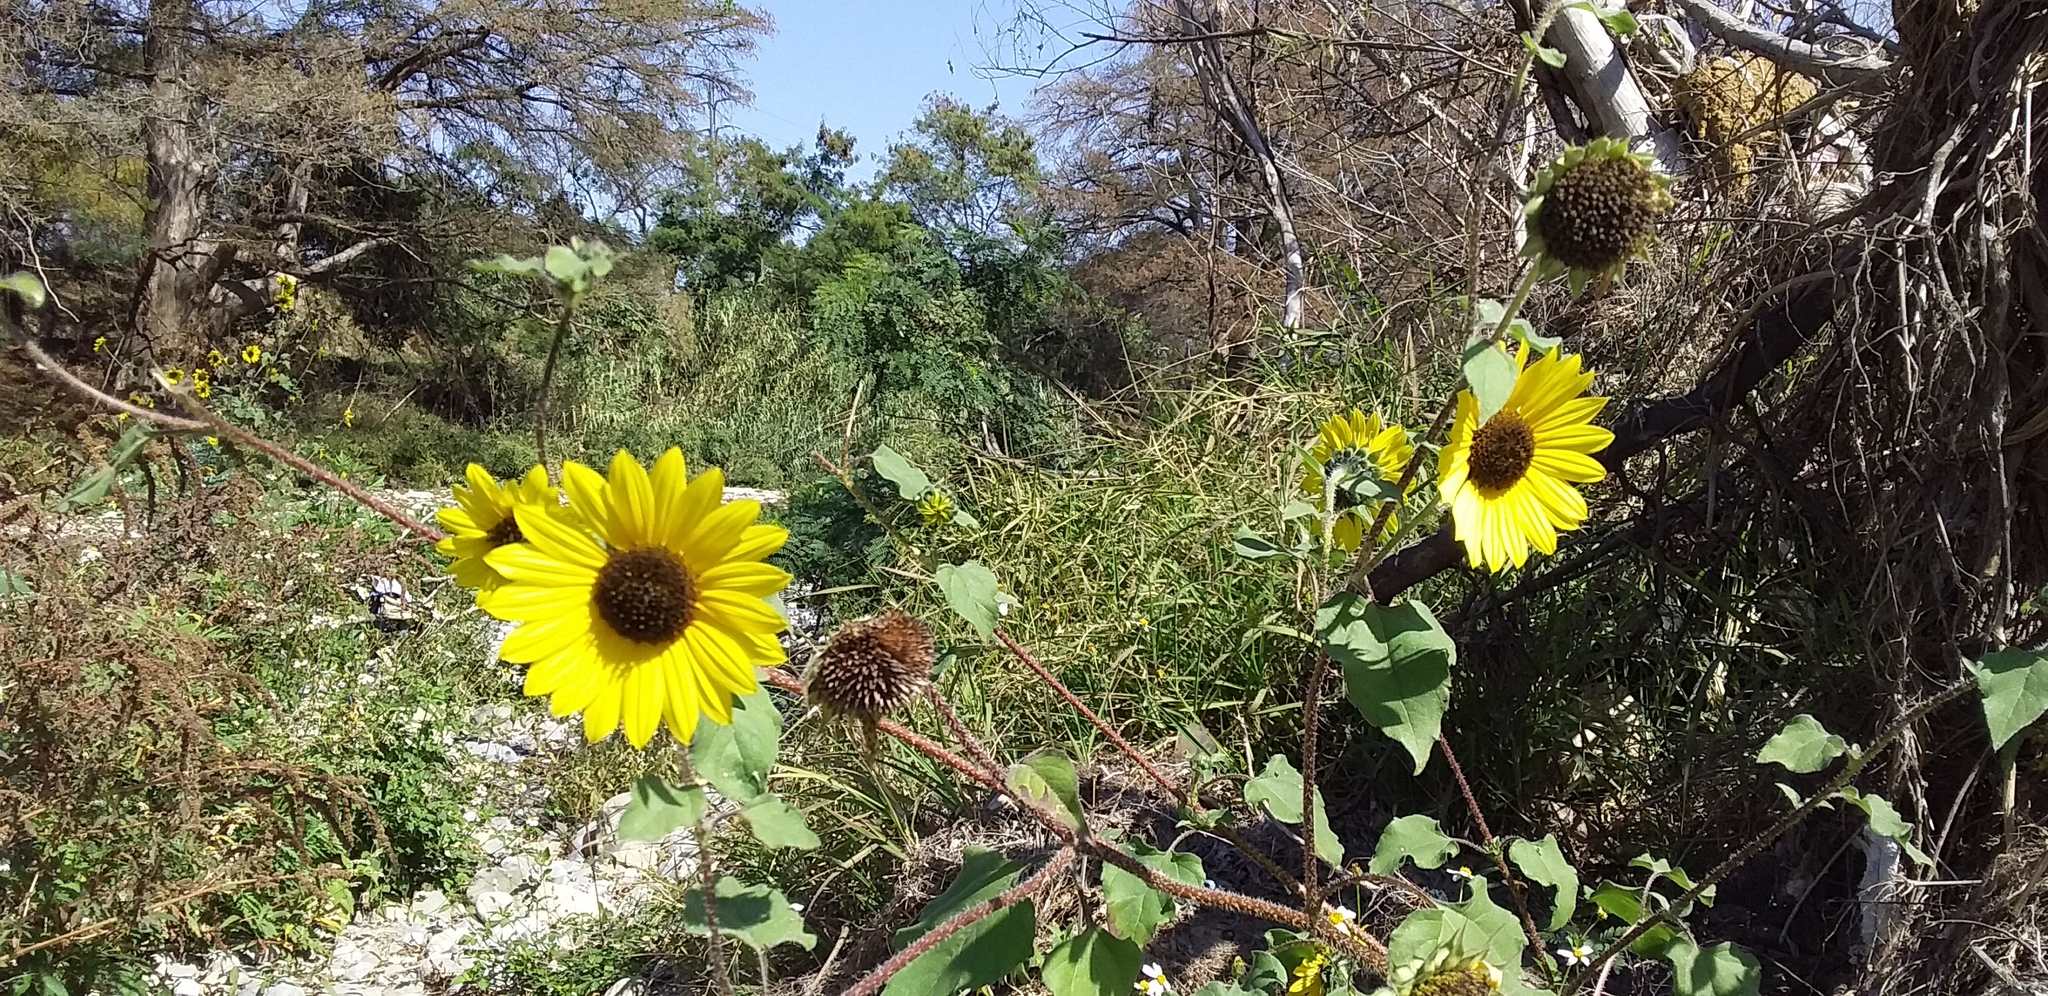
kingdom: Plantae
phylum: Tracheophyta
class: Magnoliopsida
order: Asterales
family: Asteraceae
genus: Helianthus
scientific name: Helianthus annuus
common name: Sunflower
